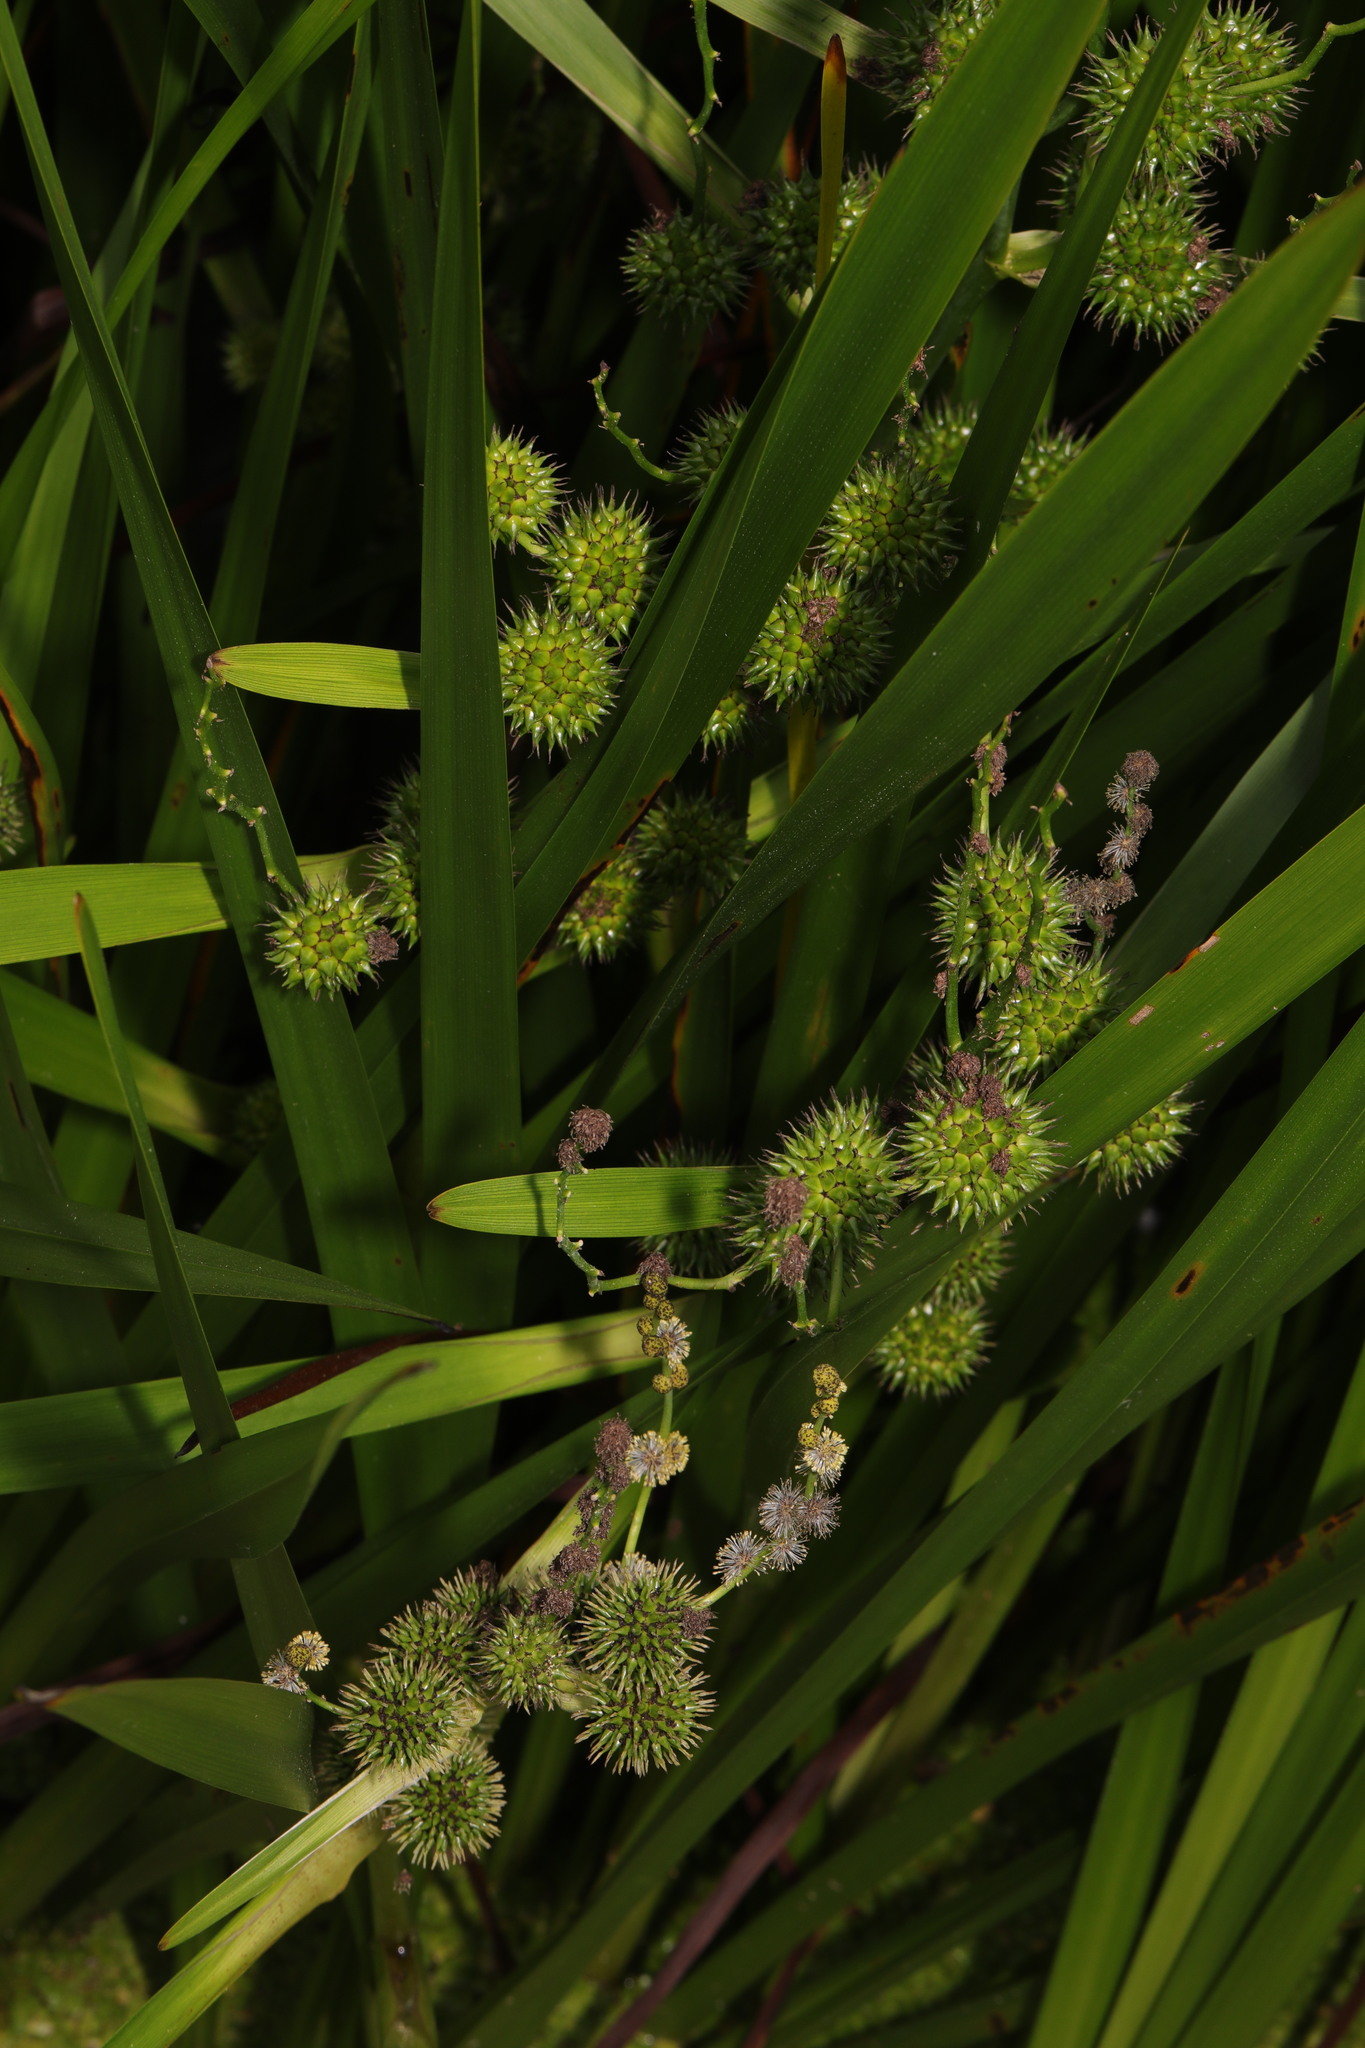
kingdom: Plantae
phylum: Tracheophyta
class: Liliopsida
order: Poales
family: Typhaceae
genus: Sparganium
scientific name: Sparganium erectum
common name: Branched bur-reed
